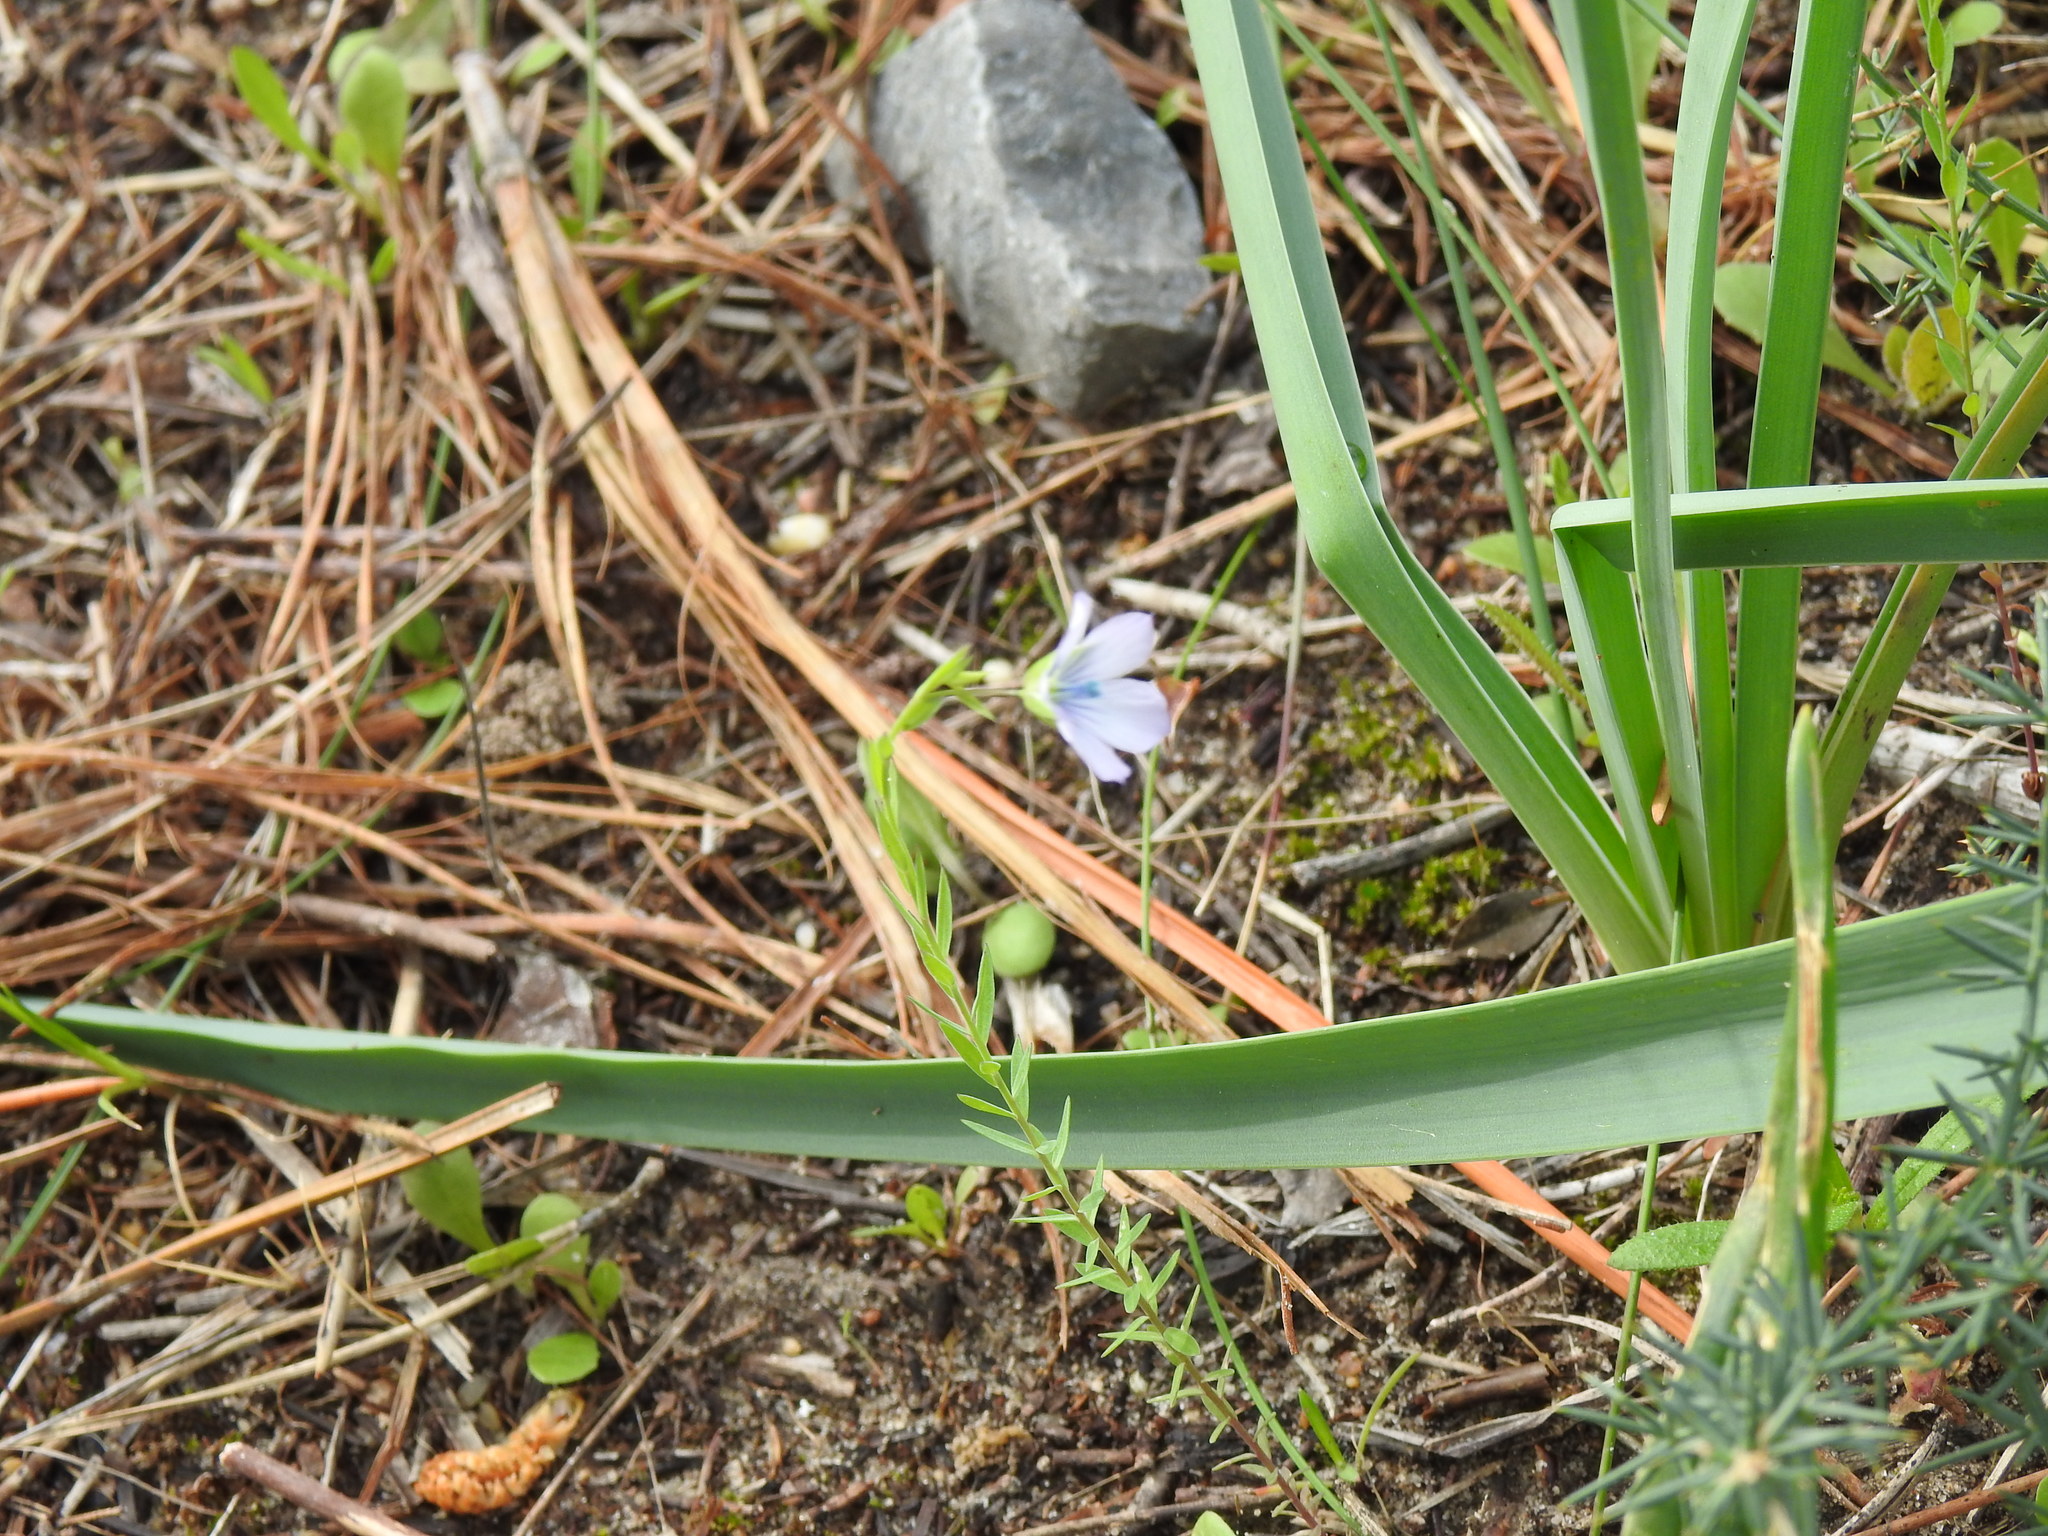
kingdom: Plantae
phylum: Tracheophyta
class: Magnoliopsida
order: Malpighiales
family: Linaceae
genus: Linum
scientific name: Linum bienne
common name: Pale flax
